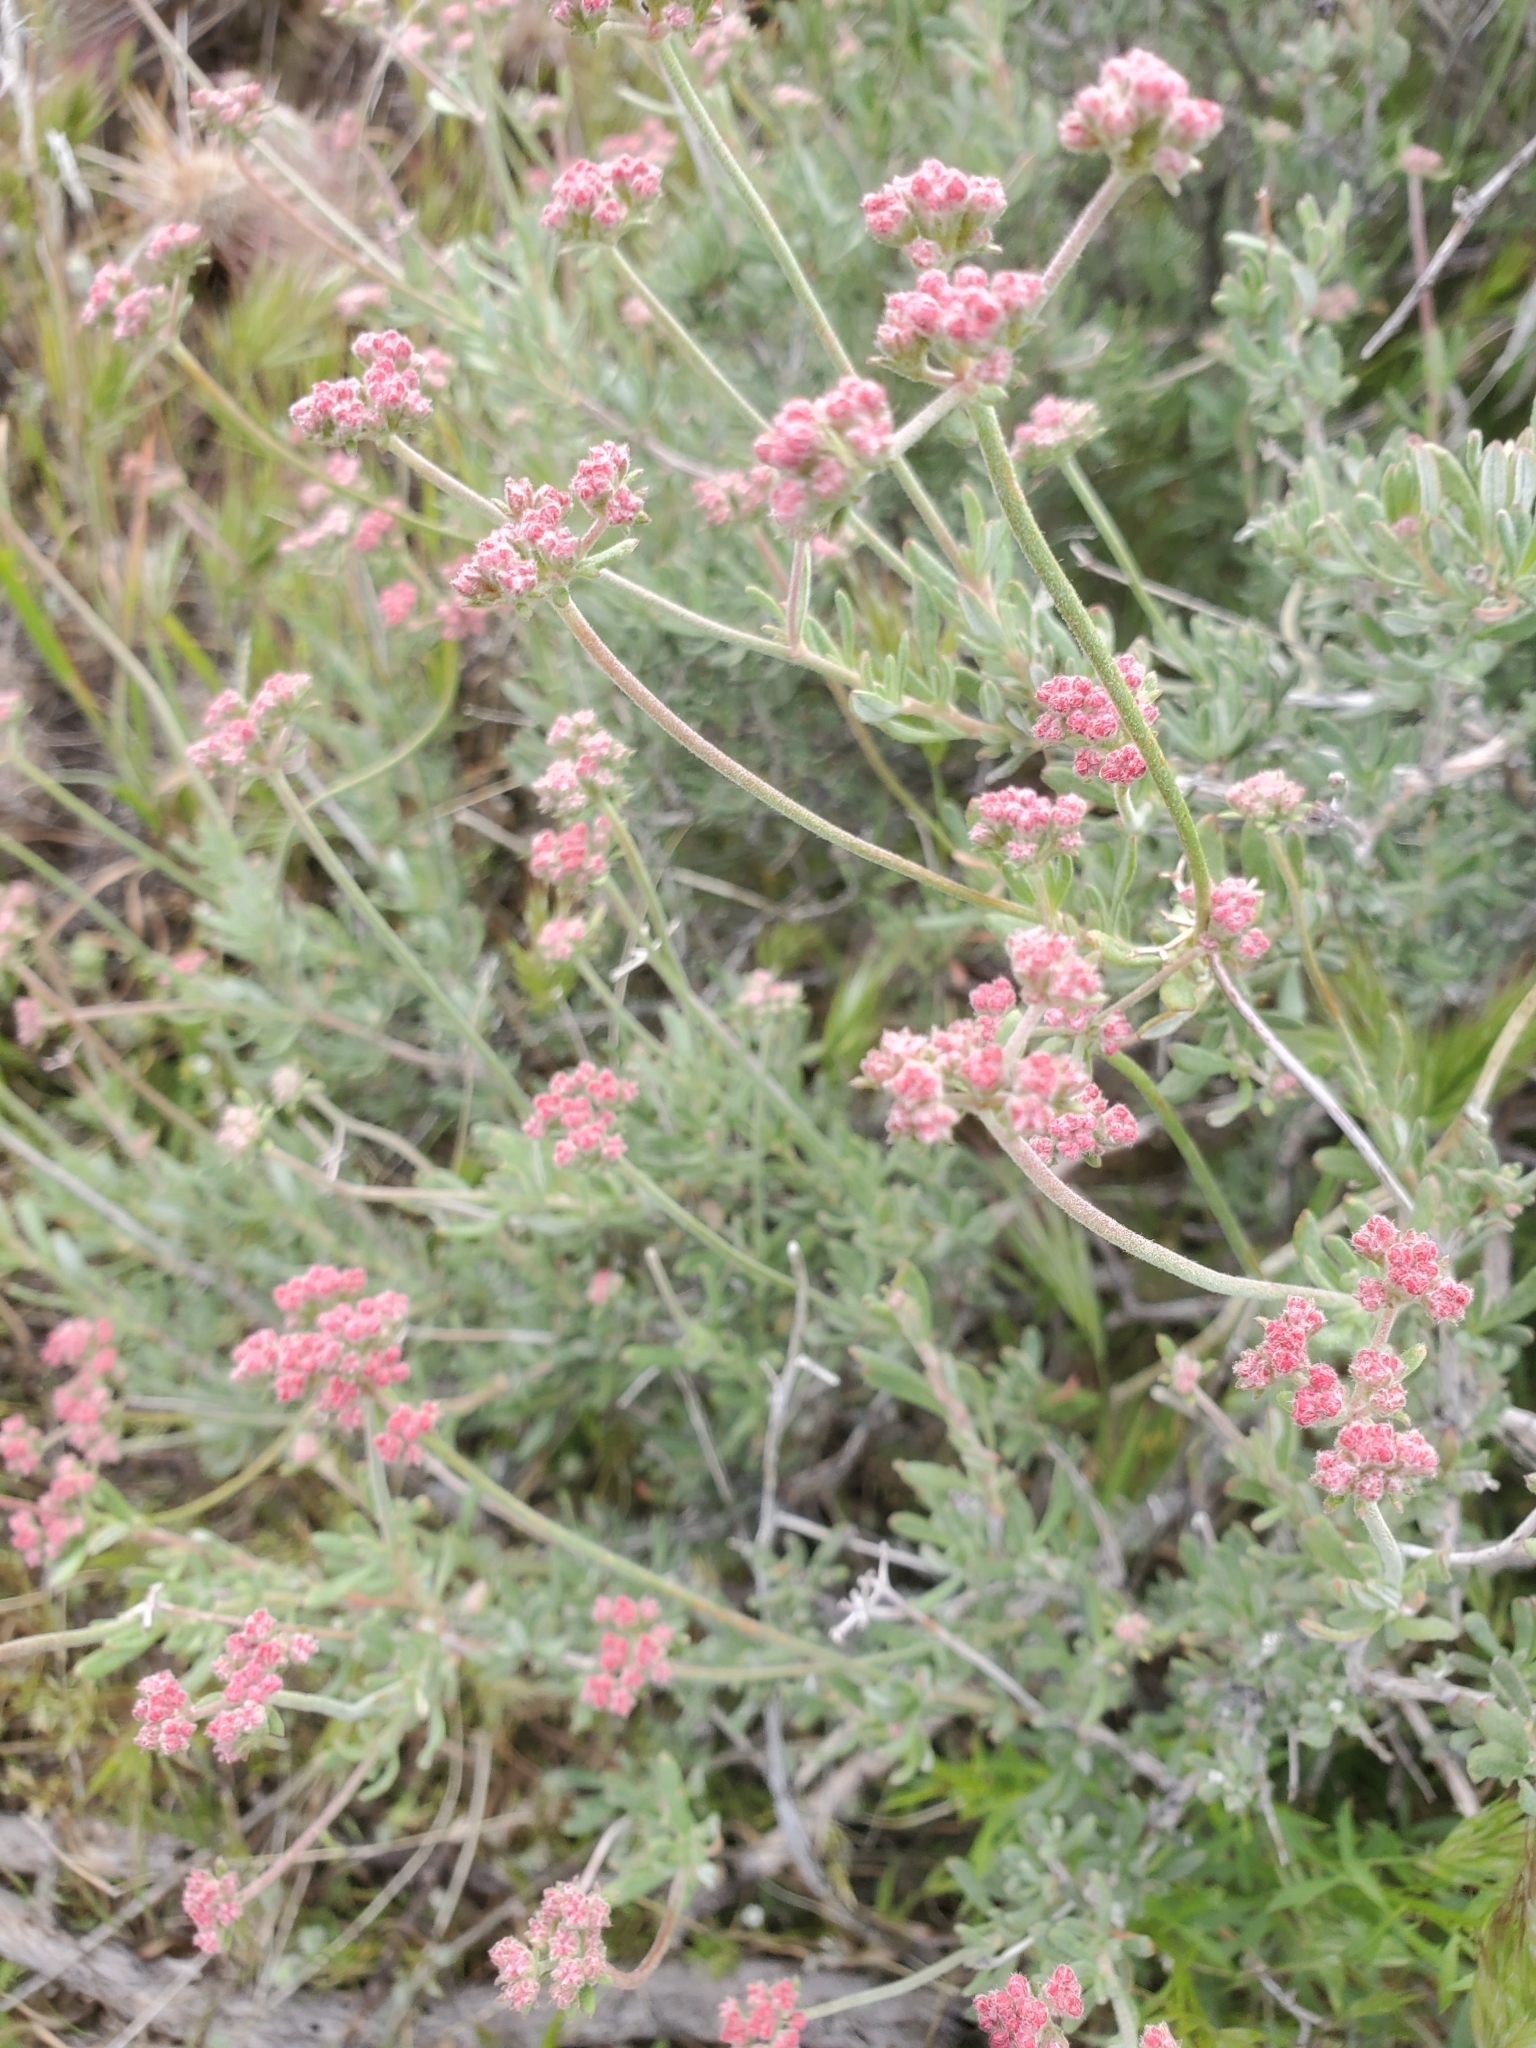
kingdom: Plantae
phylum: Tracheophyta
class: Magnoliopsida
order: Caryophyllales
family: Polygonaceae
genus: Eriogonum
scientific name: Eriogonum fasciculatum
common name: California wild buckwheat
